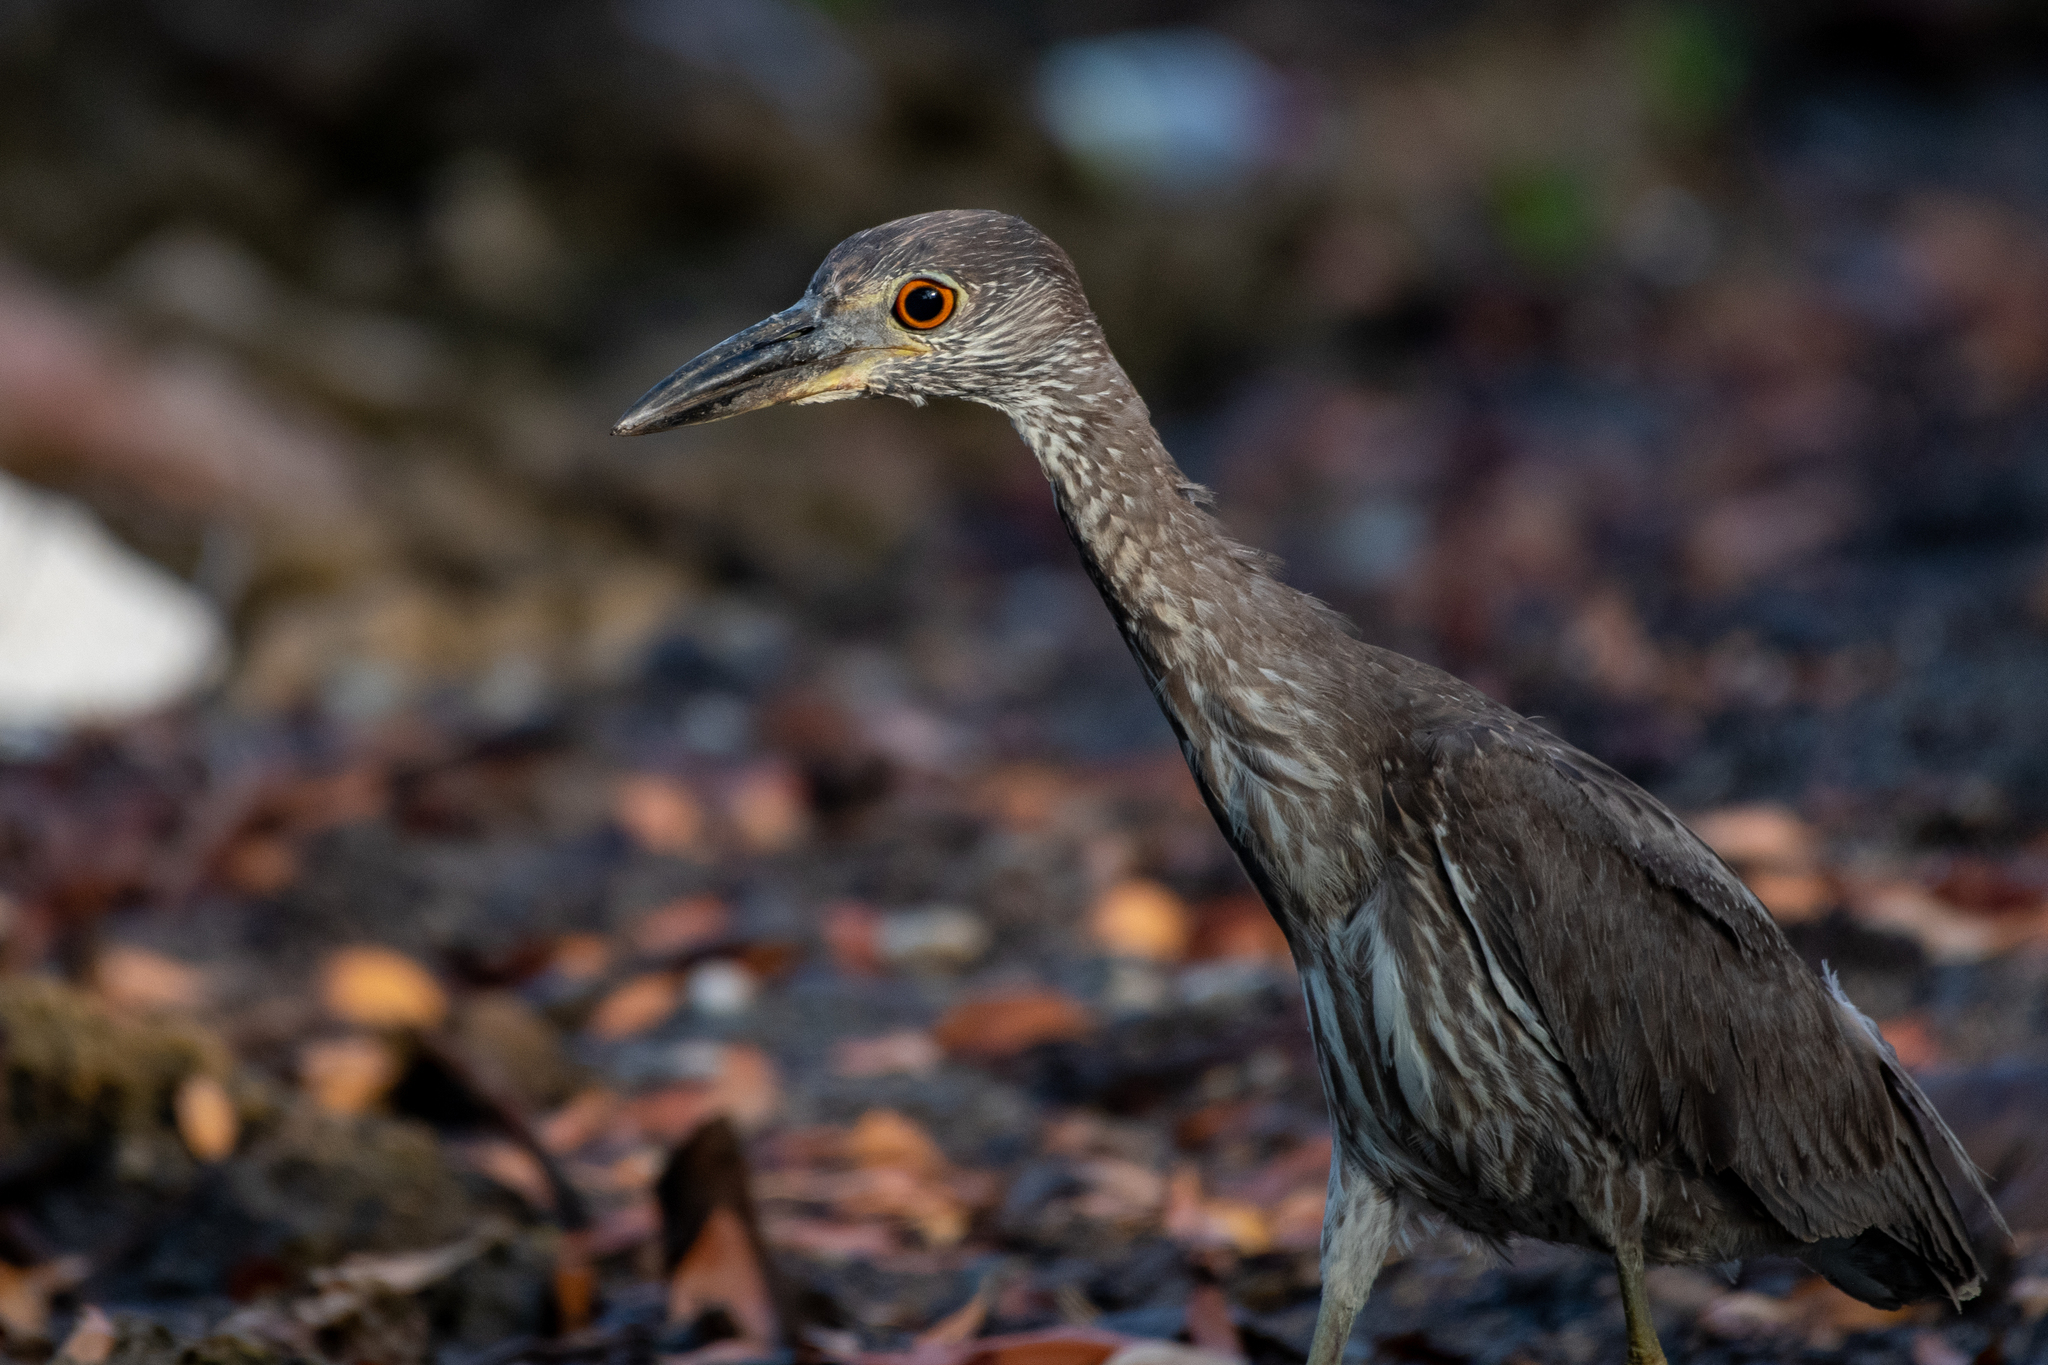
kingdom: Animalia
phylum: Chordata
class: Aves
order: Pelecaniformes
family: Ardeidae
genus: Nyctanassa
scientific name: Nyctanassa violacea
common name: Yellow-crowned night heron
